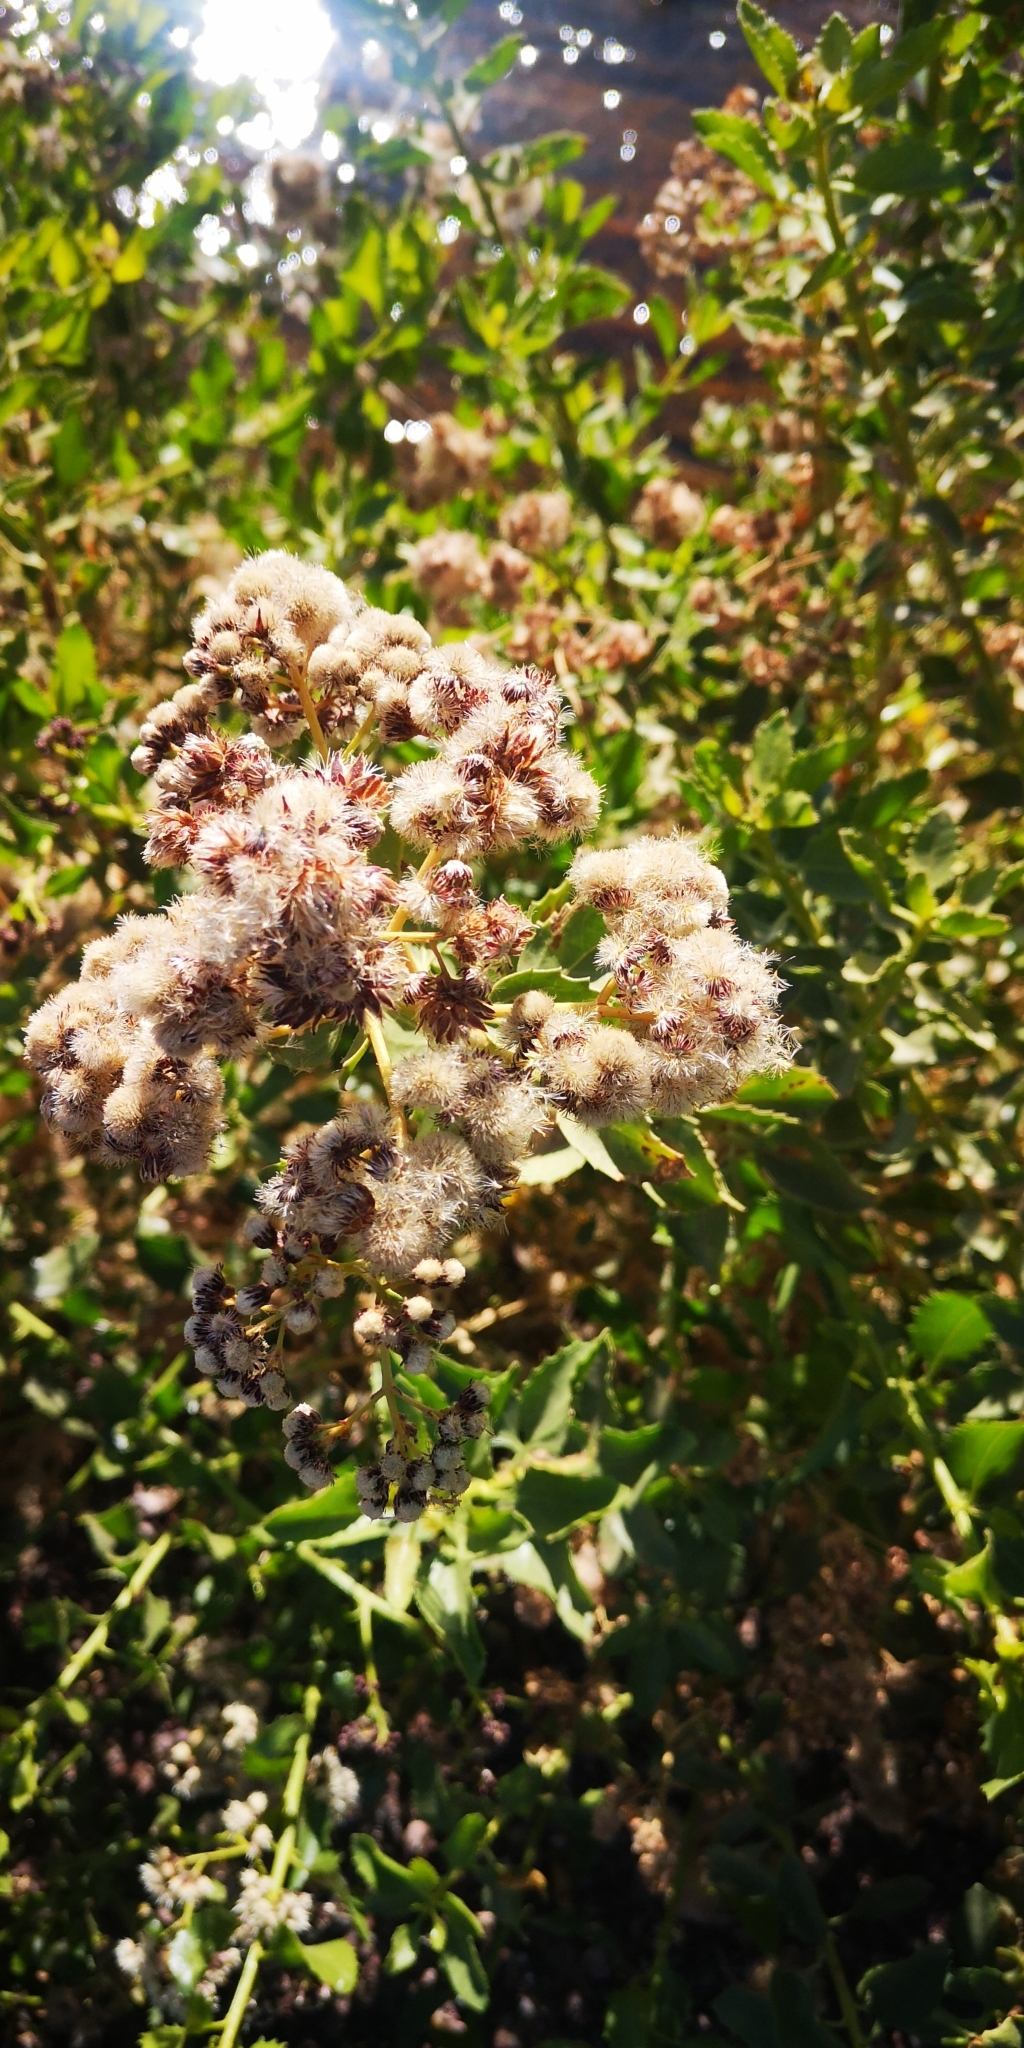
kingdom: Plantae
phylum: Tracheophyta
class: Magnoliopsida
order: Asterales
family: Asteraceae
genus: Baccharis
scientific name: Baccharis scandens
